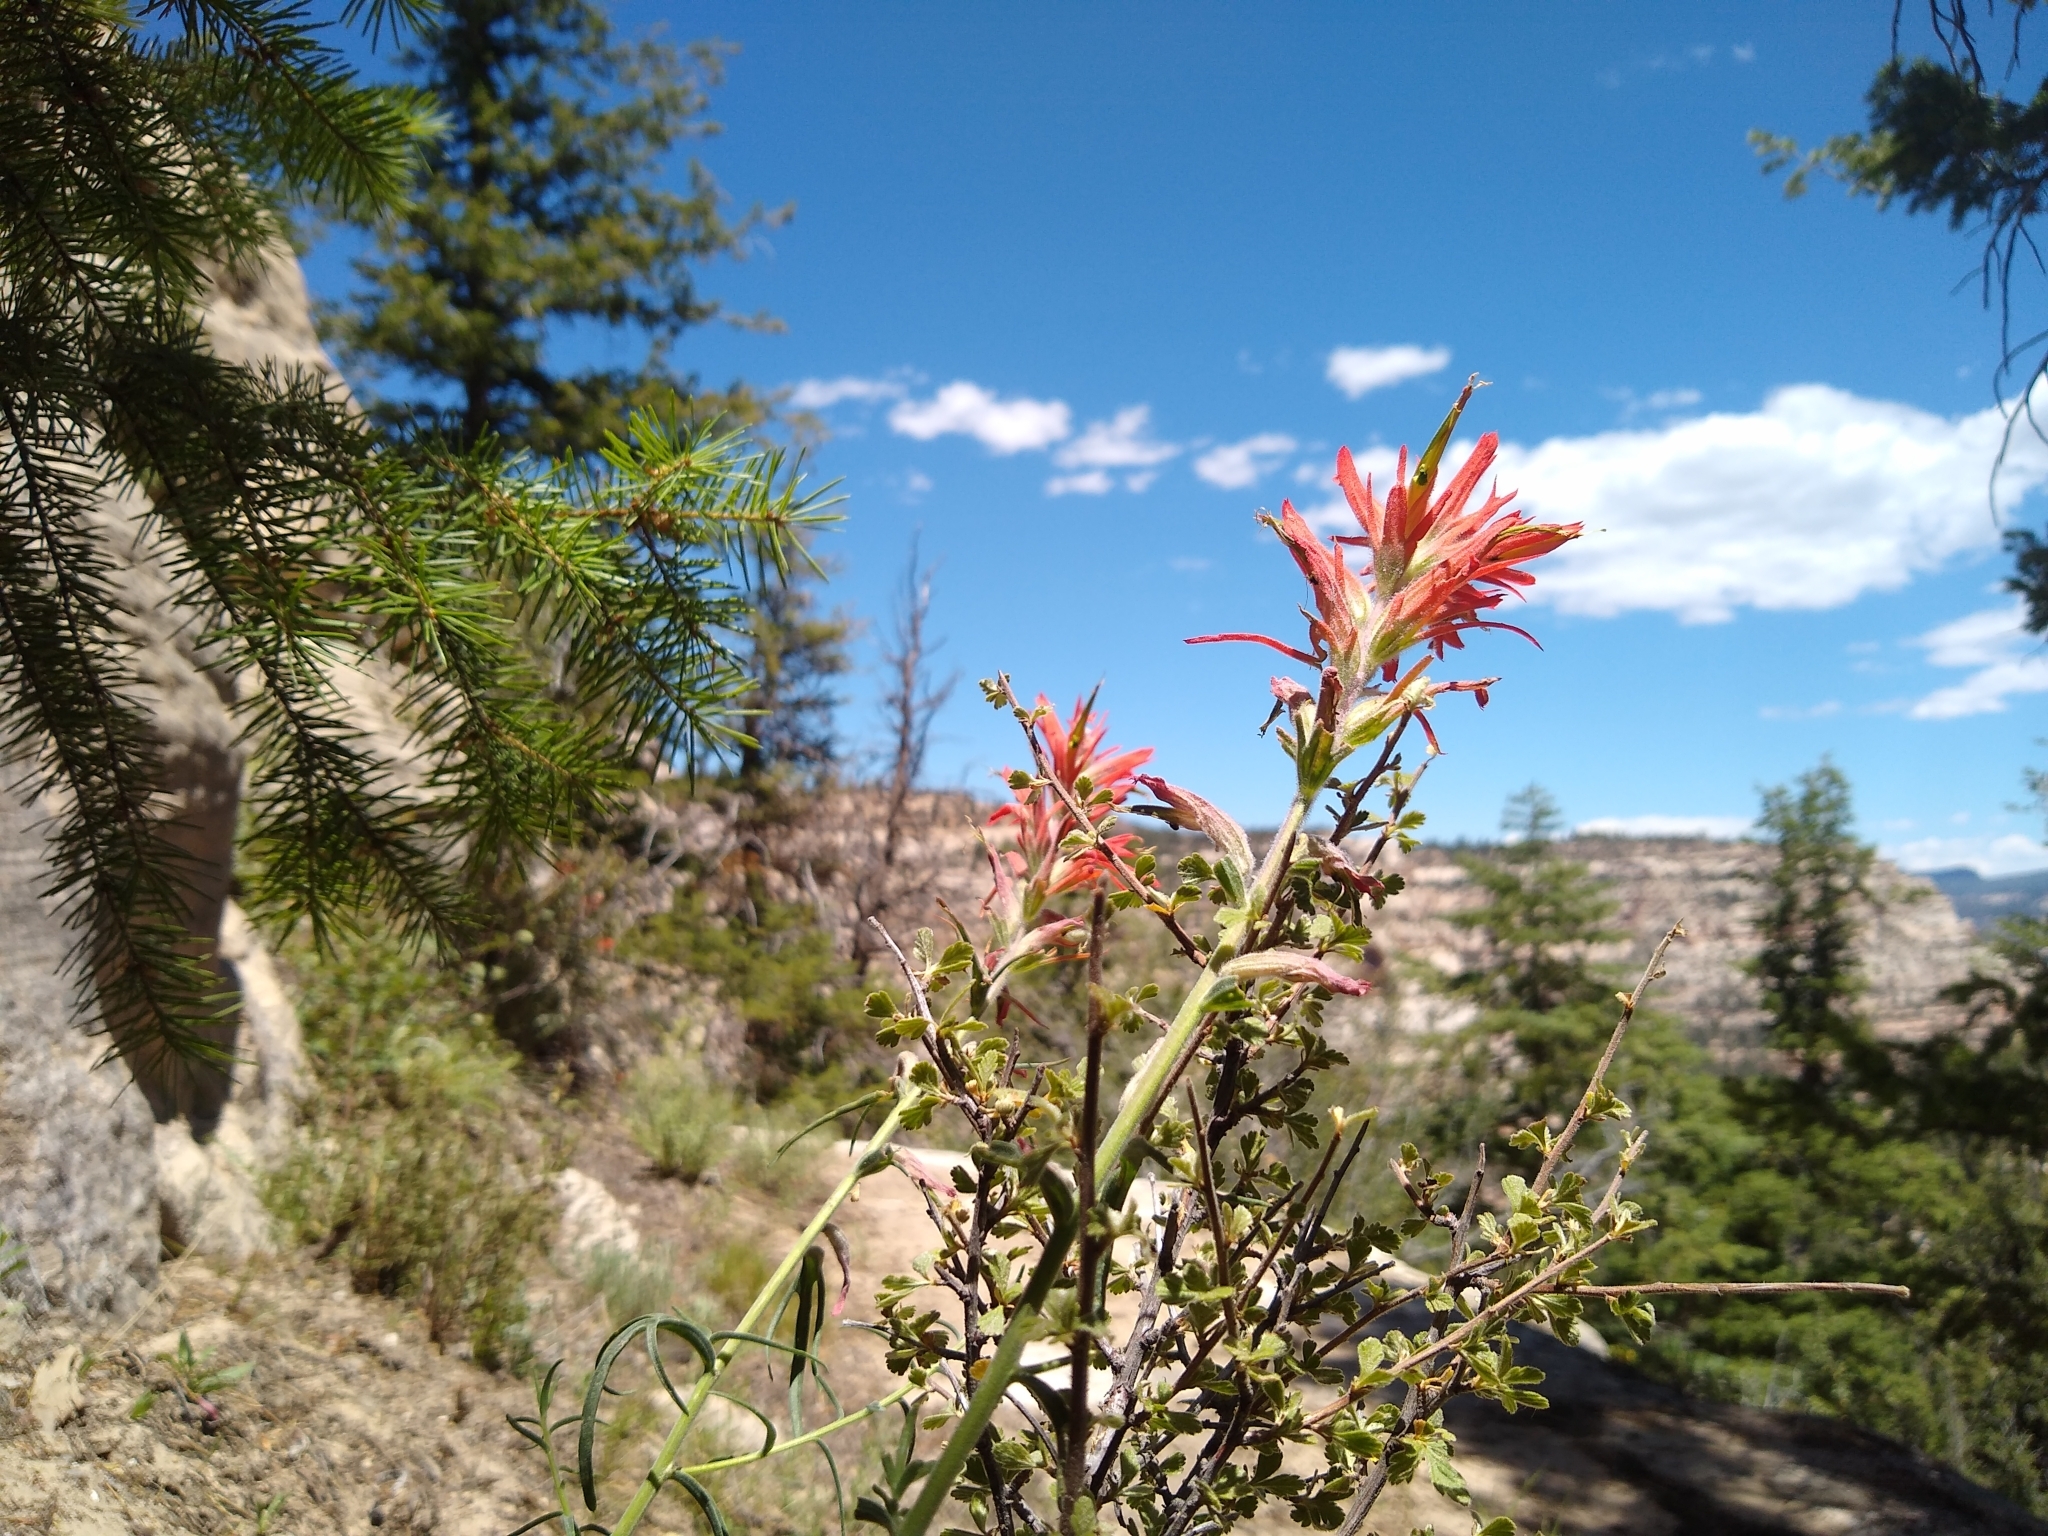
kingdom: Plantae
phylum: Tracheophyta
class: Magnoliopsida
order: Lamiales
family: Orobanchaceae
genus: Castilleja
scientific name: Castilleja linariifolia
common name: Wyoming paintbrush
